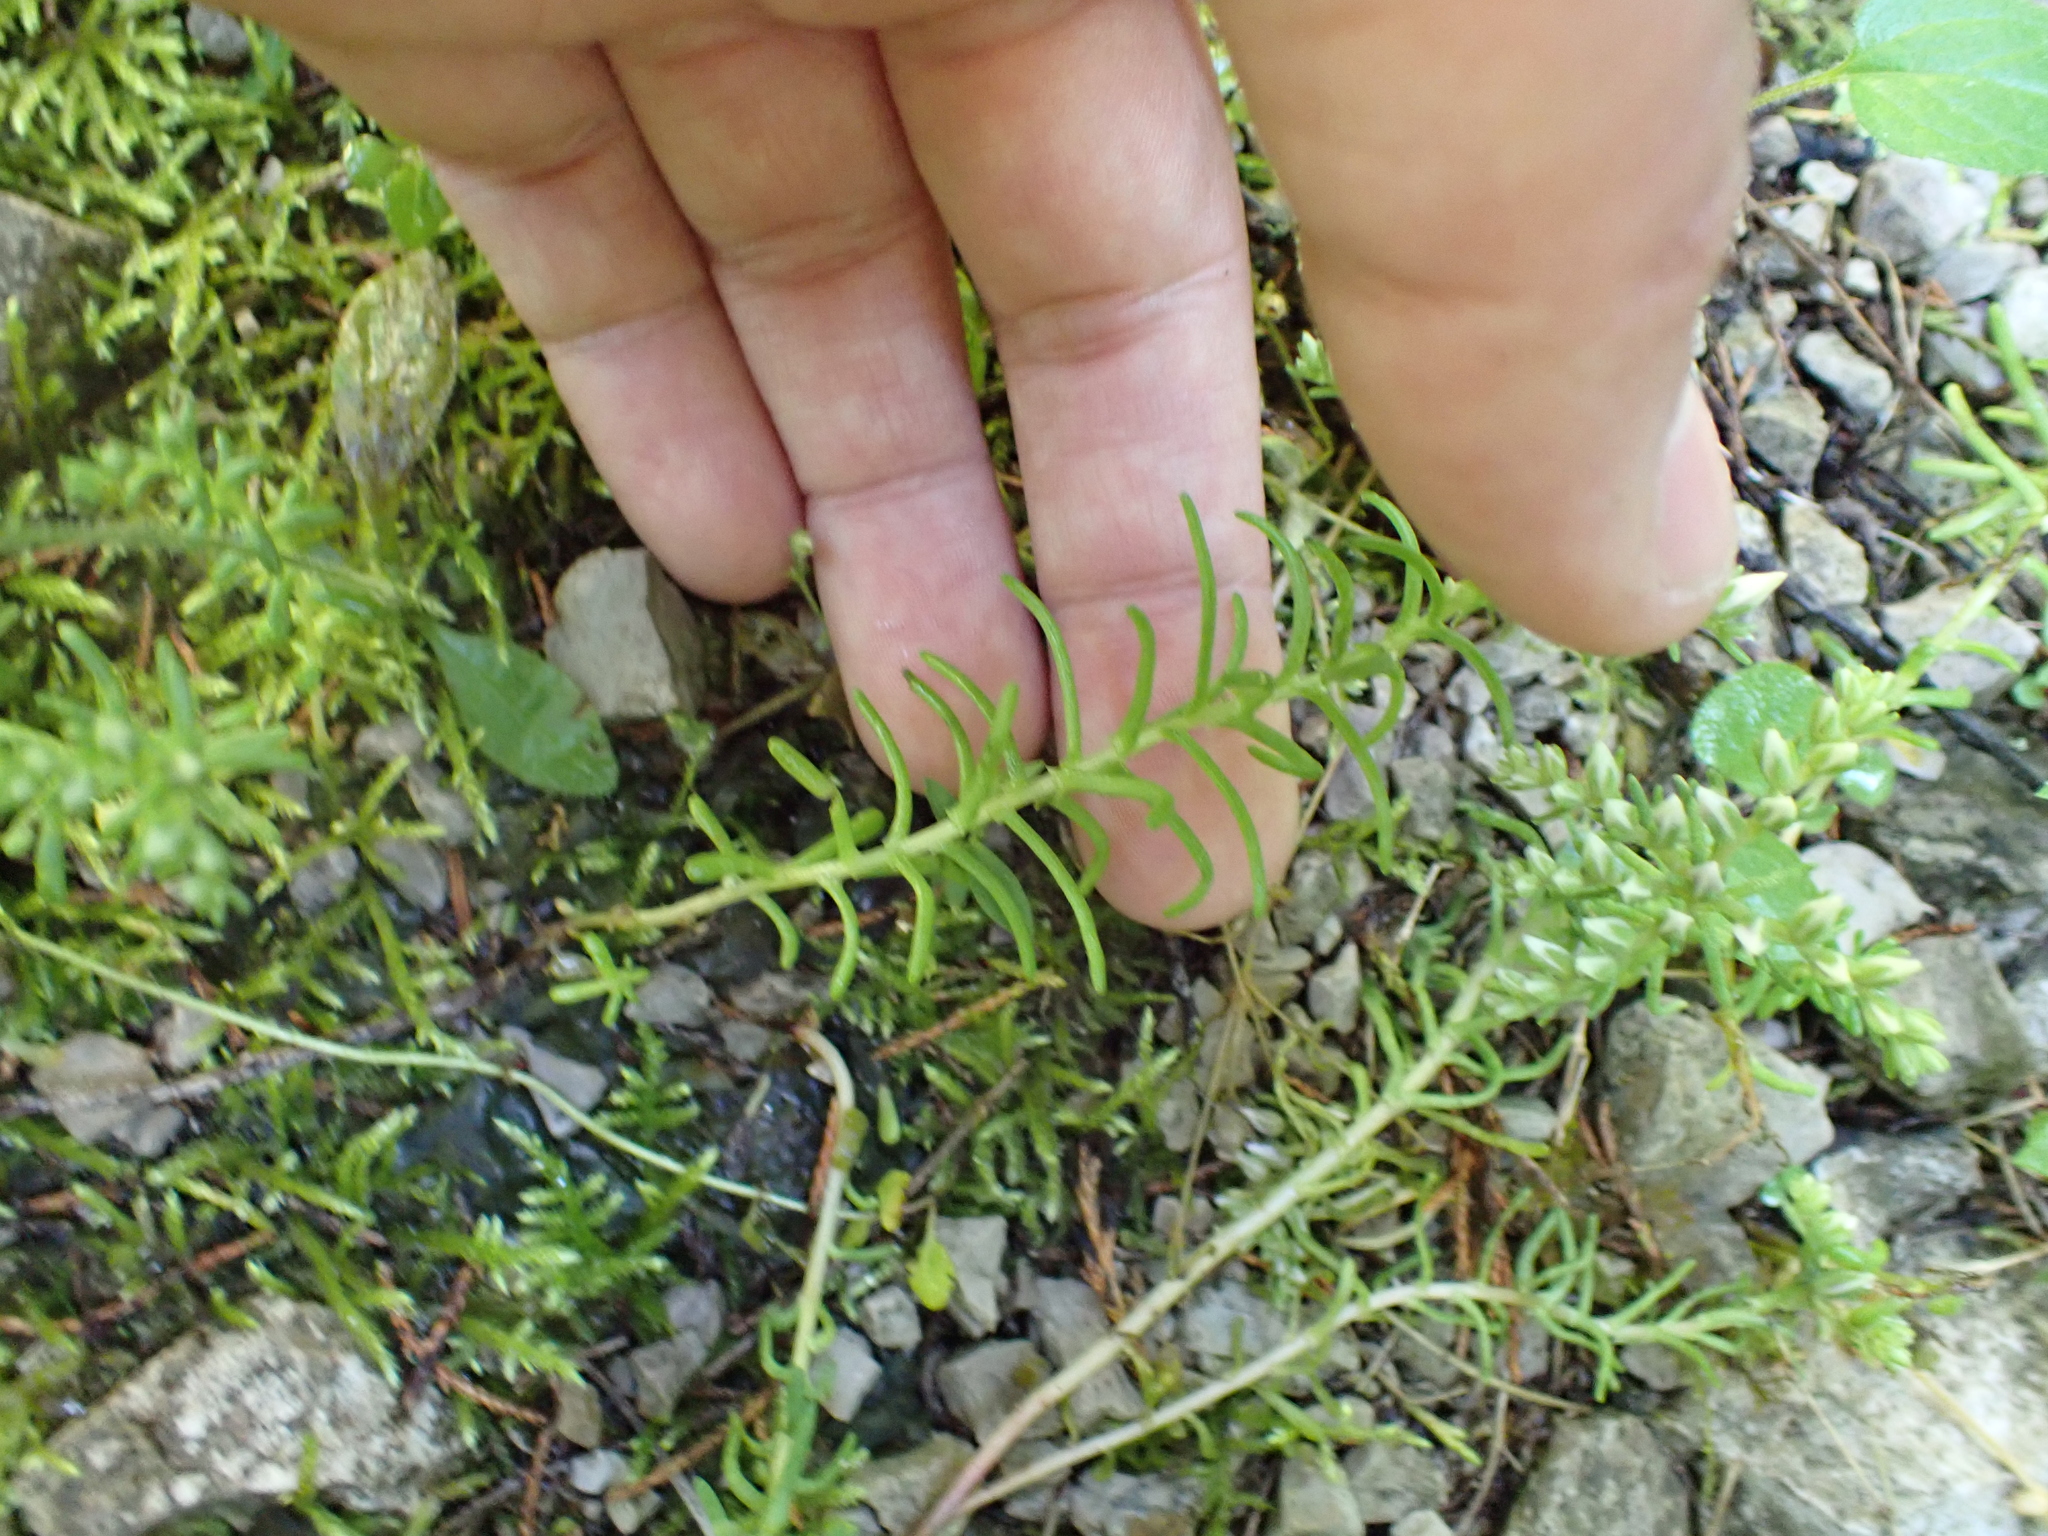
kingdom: Plantae
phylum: Tracheophyta
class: Magnoliopsida
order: Saxifragales
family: Crassulaceae
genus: Sedum
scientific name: Sedum pulchellum
